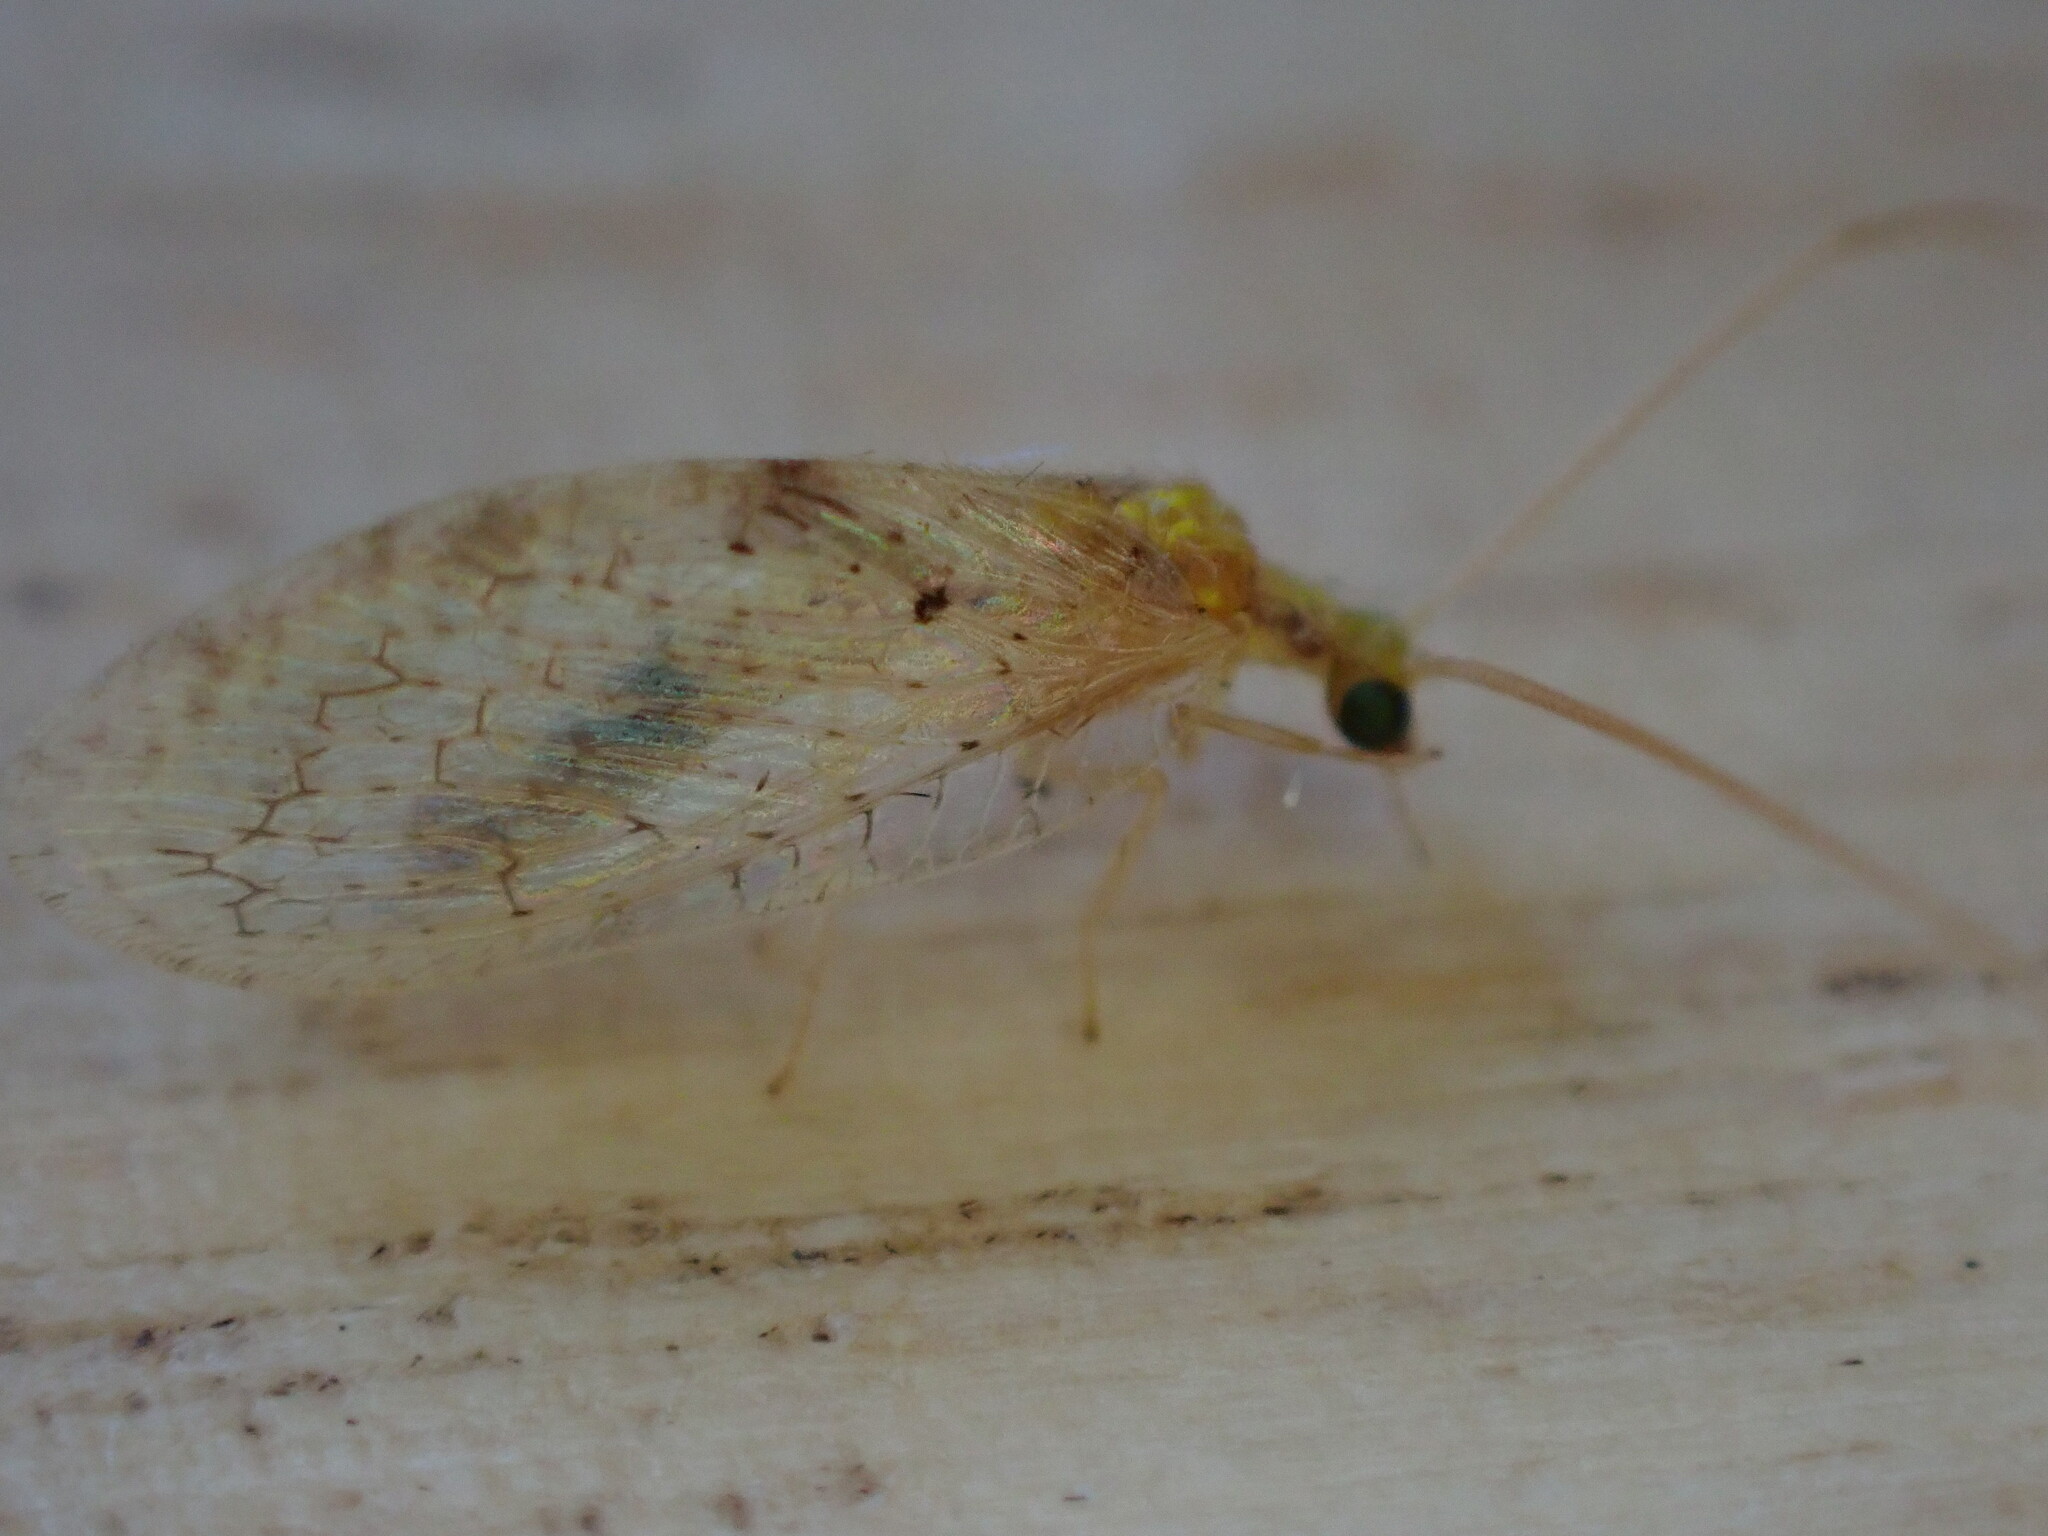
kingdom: Animalia
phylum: Arthropoda
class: Insecta
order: Neuroptera
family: Hemerobiidae
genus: Hemerobius
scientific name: Hemerobius lutescens
